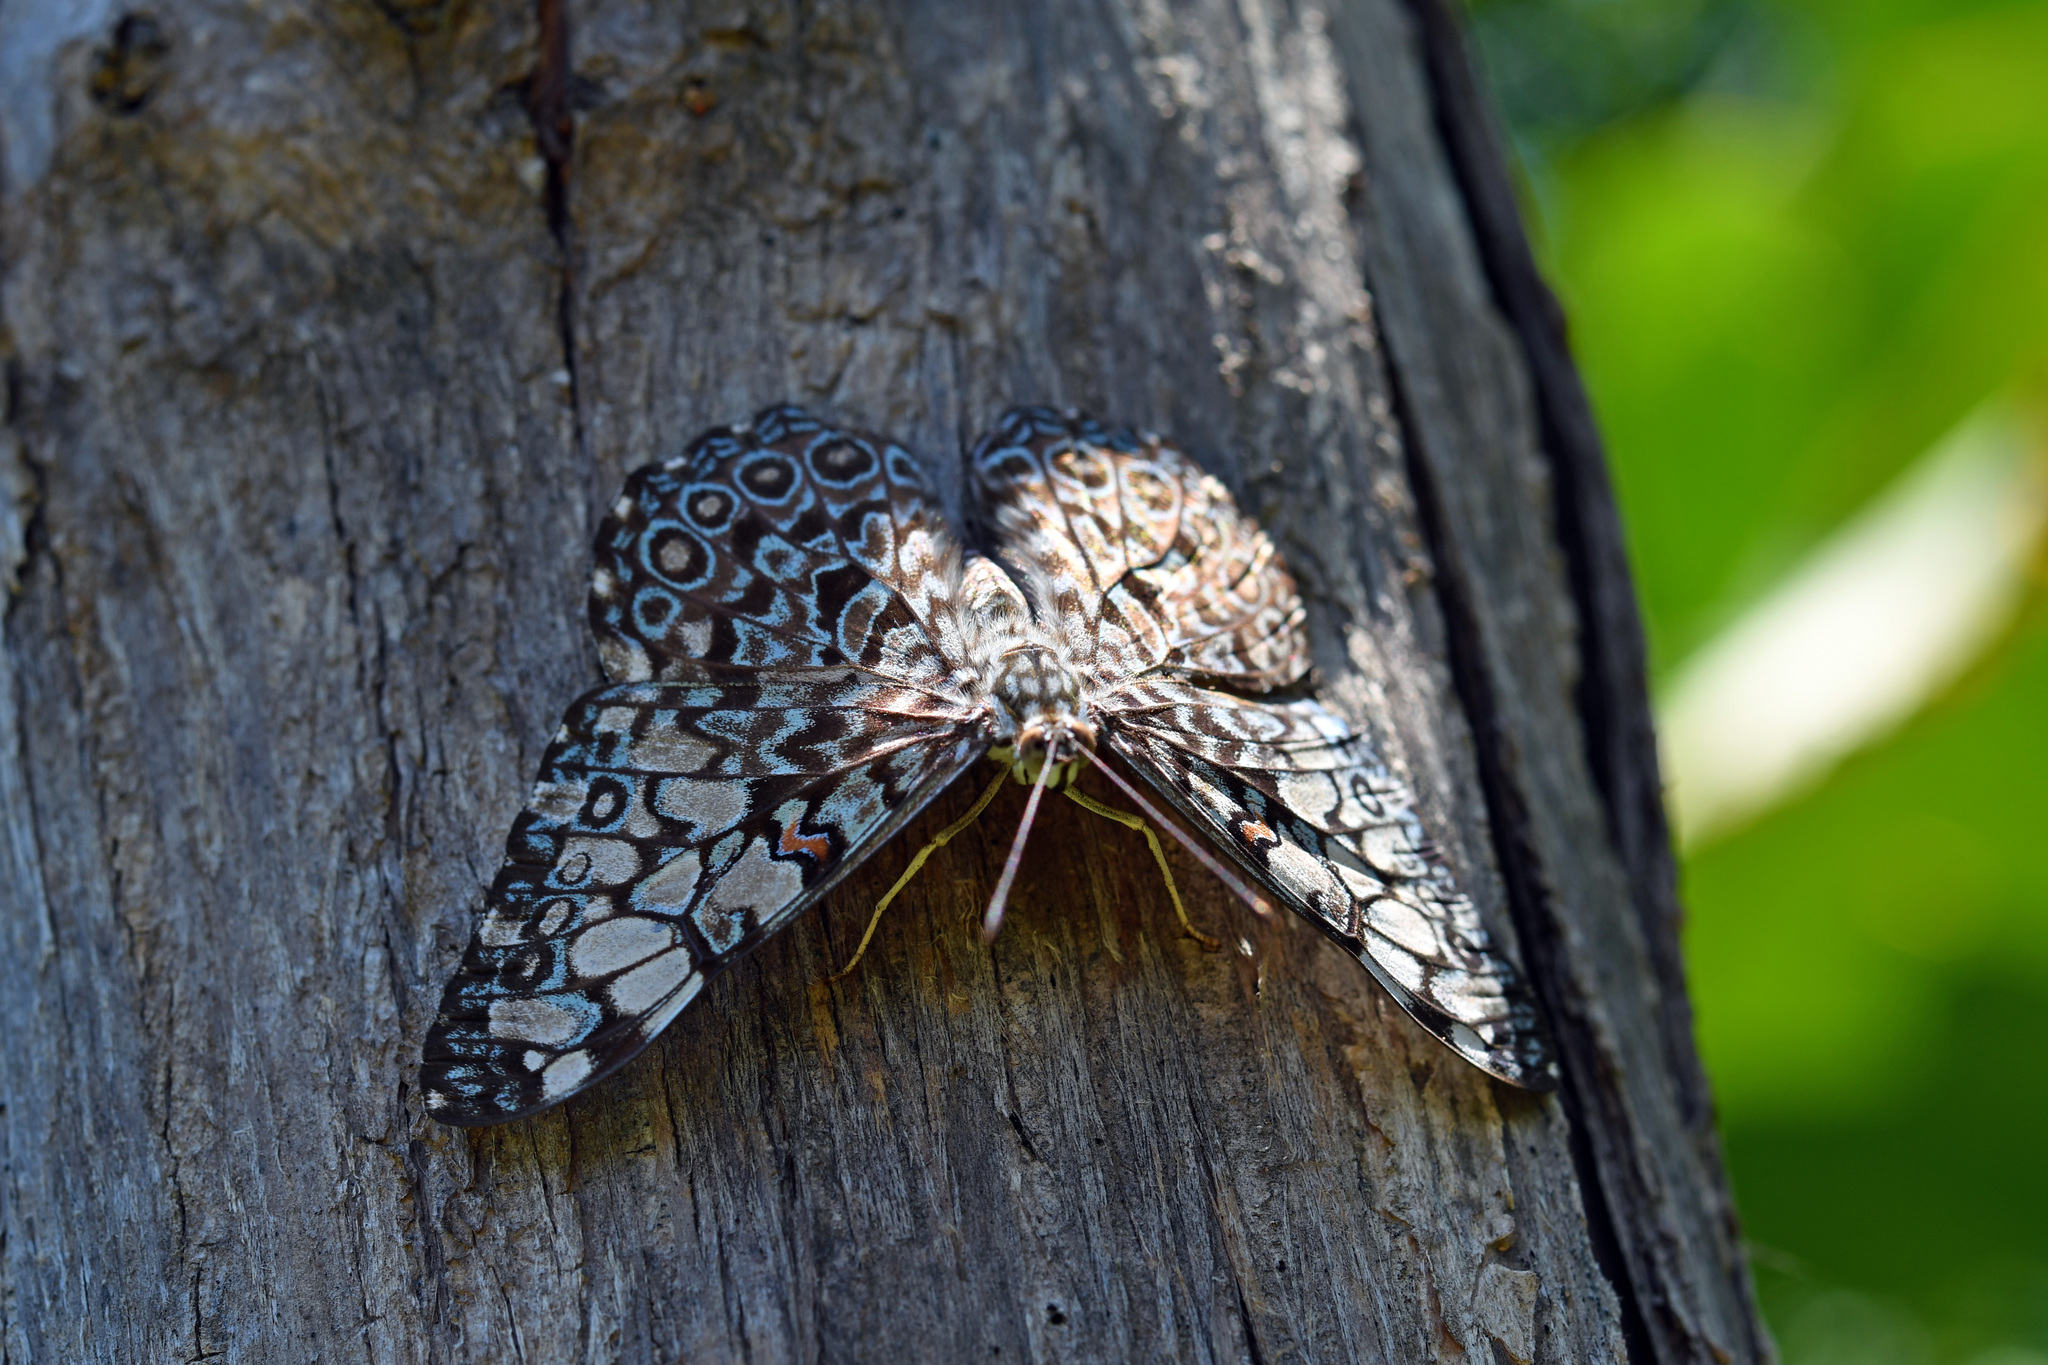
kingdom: Animalia
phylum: Arthropoda
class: Insecta
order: Lepidoptera
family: Nymphalidae
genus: Hamadryas
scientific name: Hamadryas feronia
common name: Variable cracker
